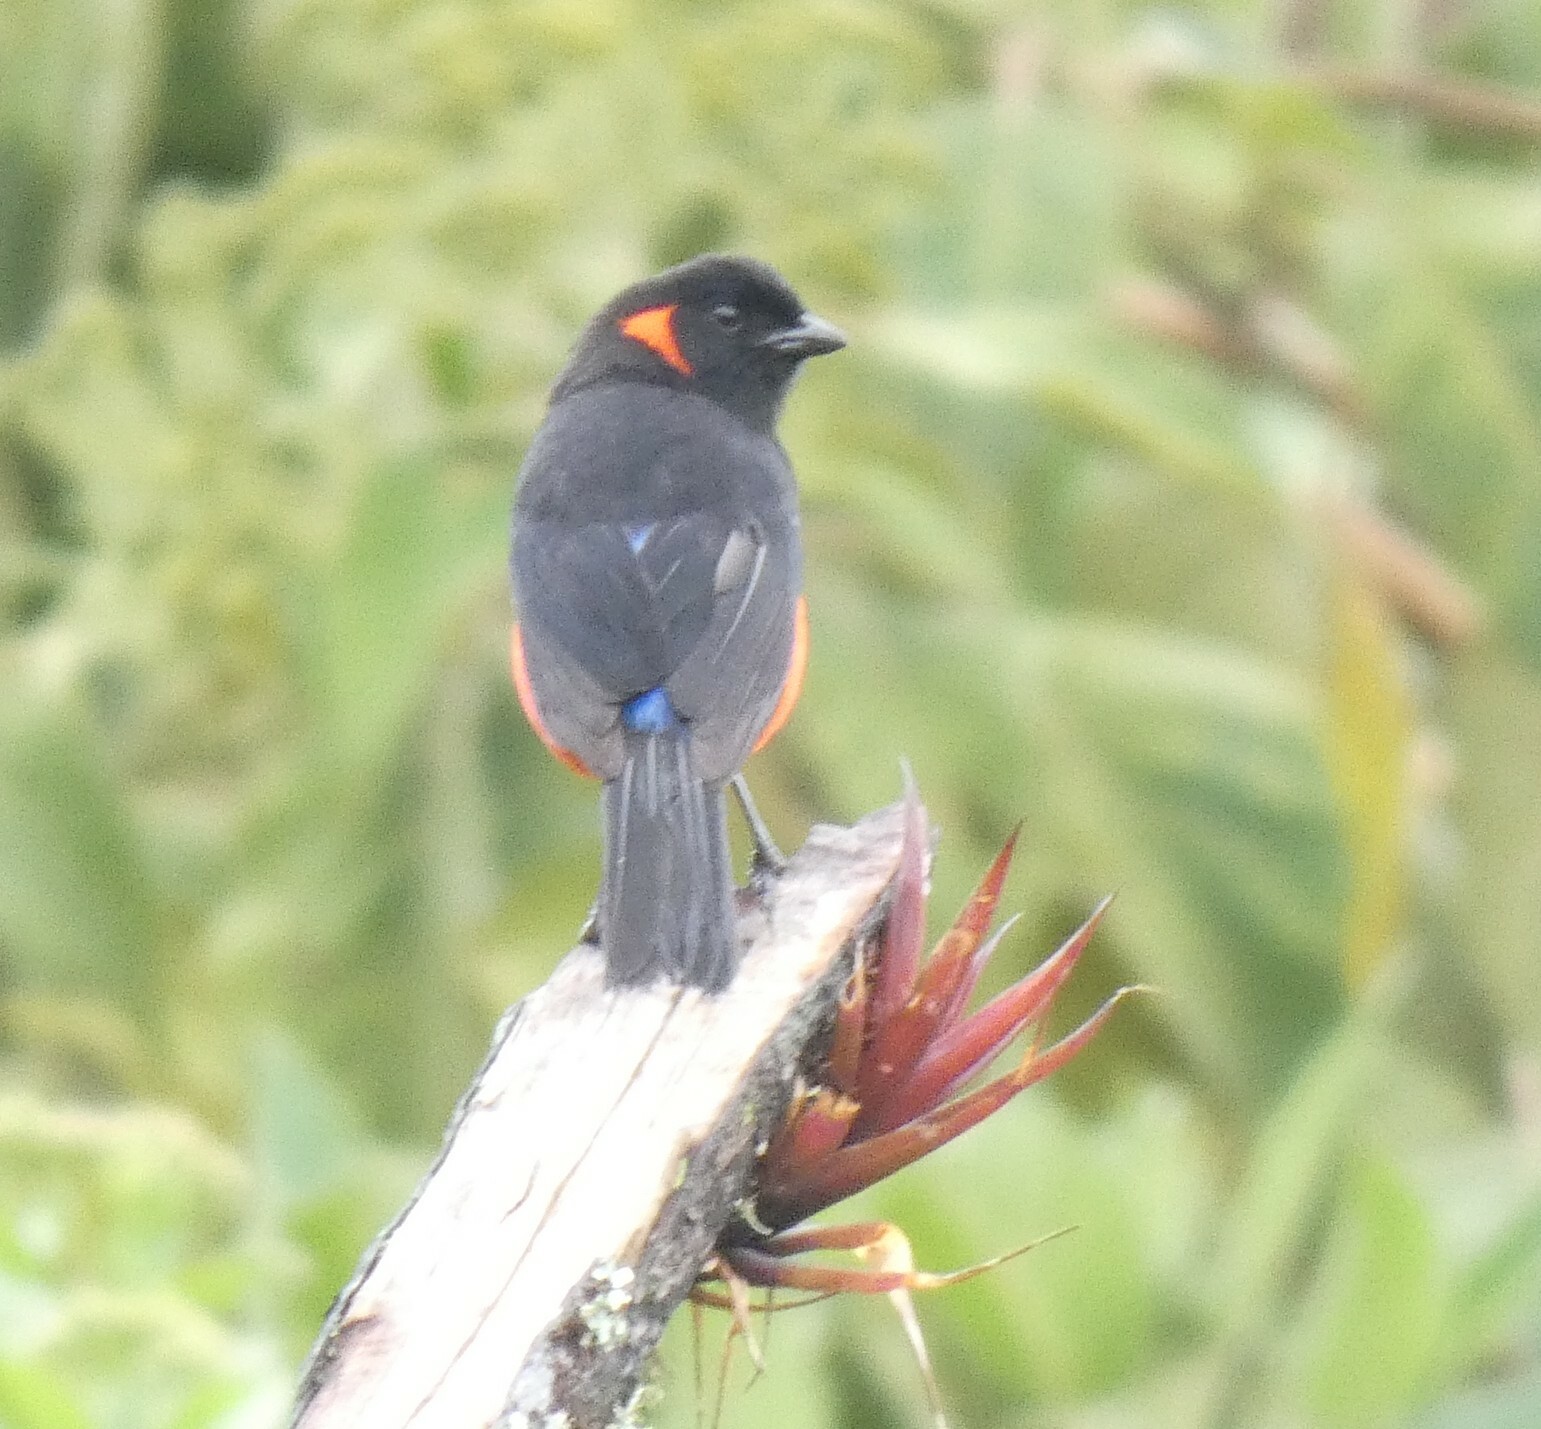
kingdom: Animalia
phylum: Chordata
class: Aves
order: Passeriformes
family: Thraupidae
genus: Anisognathus
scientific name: Anisognathus igniventris
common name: Scarlet-bellied mountain tanager
